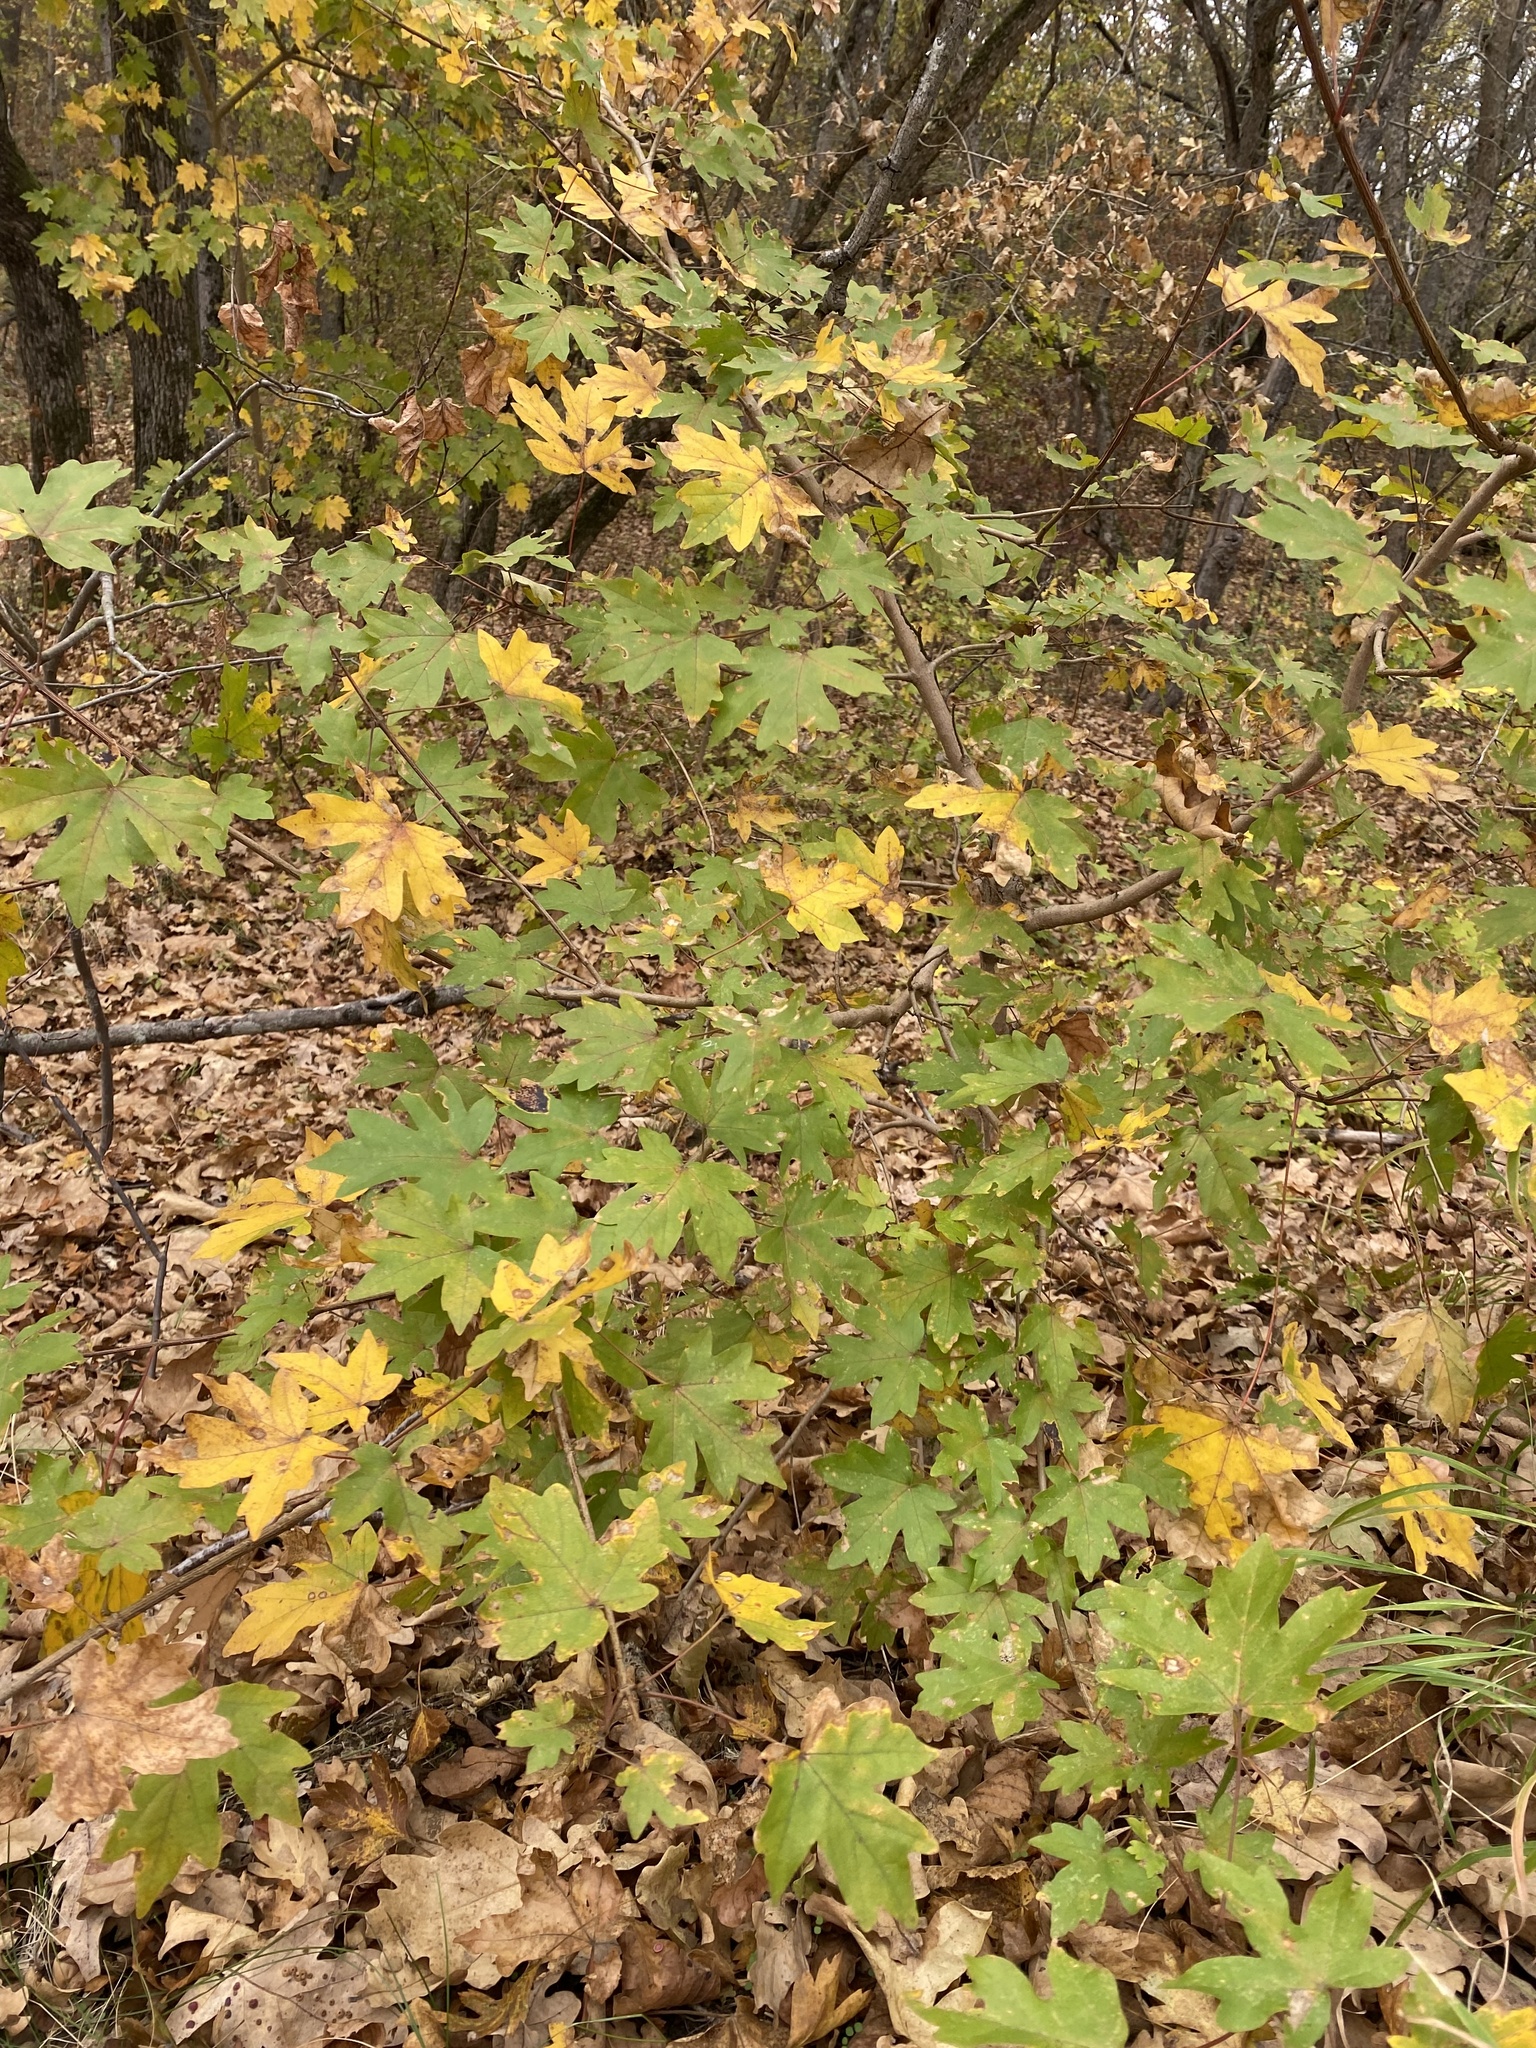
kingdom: Plantae
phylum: Tracheophyta
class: Magnoliopsida
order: Sapindales
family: Sapindaceae
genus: Acer
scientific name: Acer campestre
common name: Field maple
